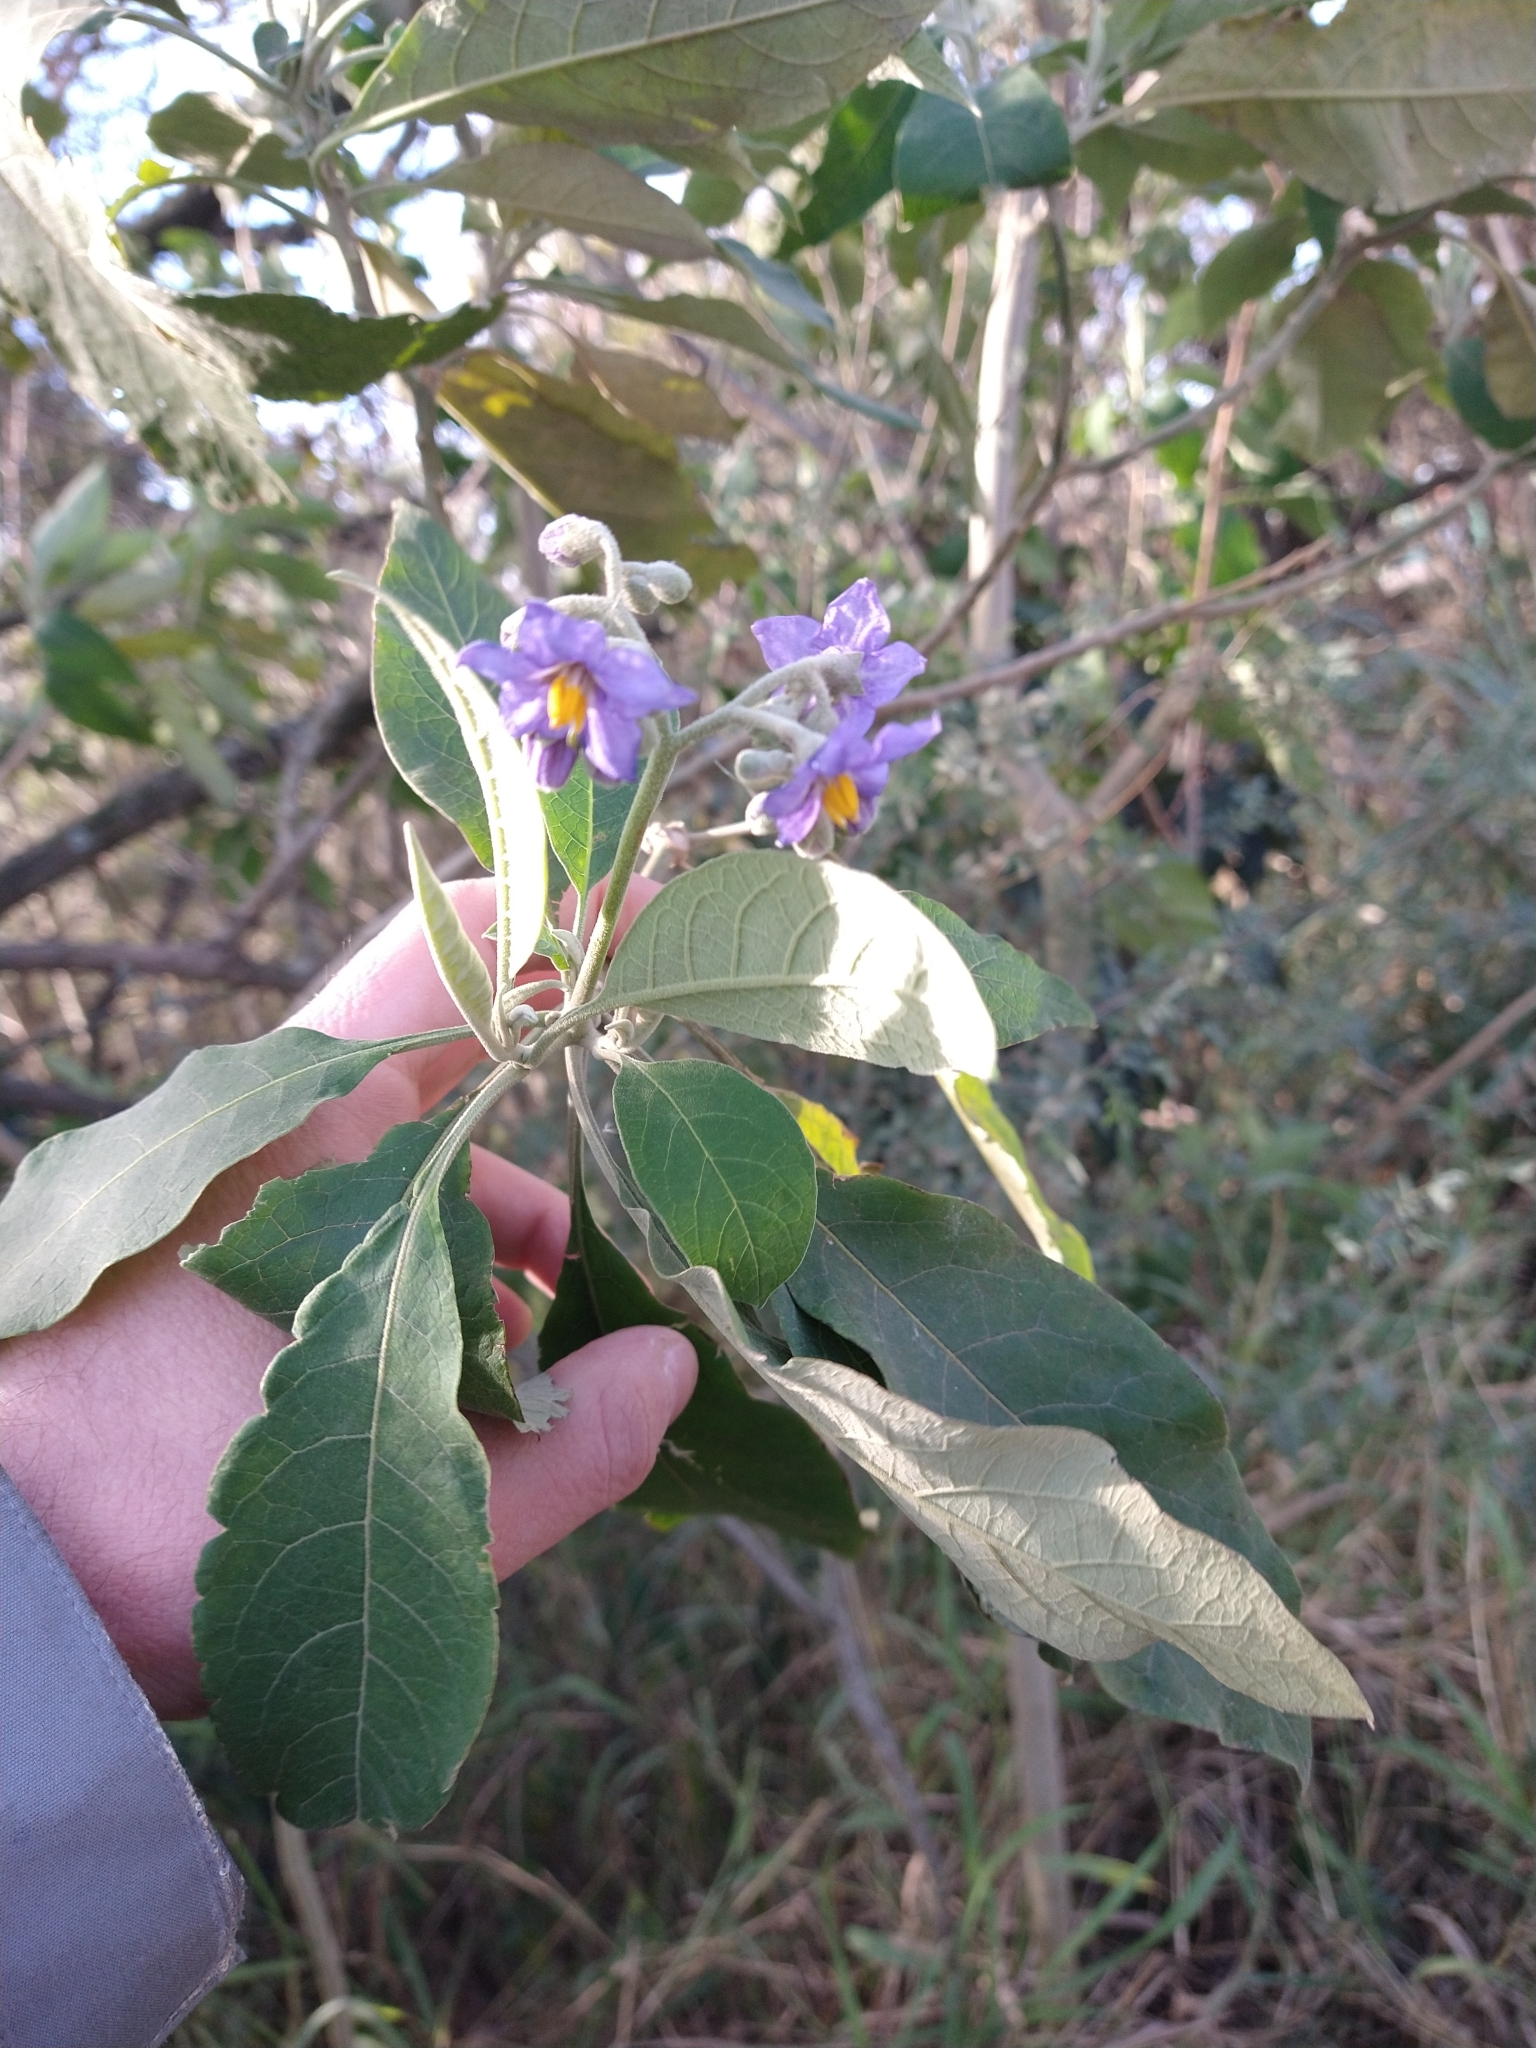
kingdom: Plantae
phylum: Tracheophyta
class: Magnoliopsida
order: Solanales
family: Solanaceae
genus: Solanum
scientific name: Solanum granulosoleprosum
